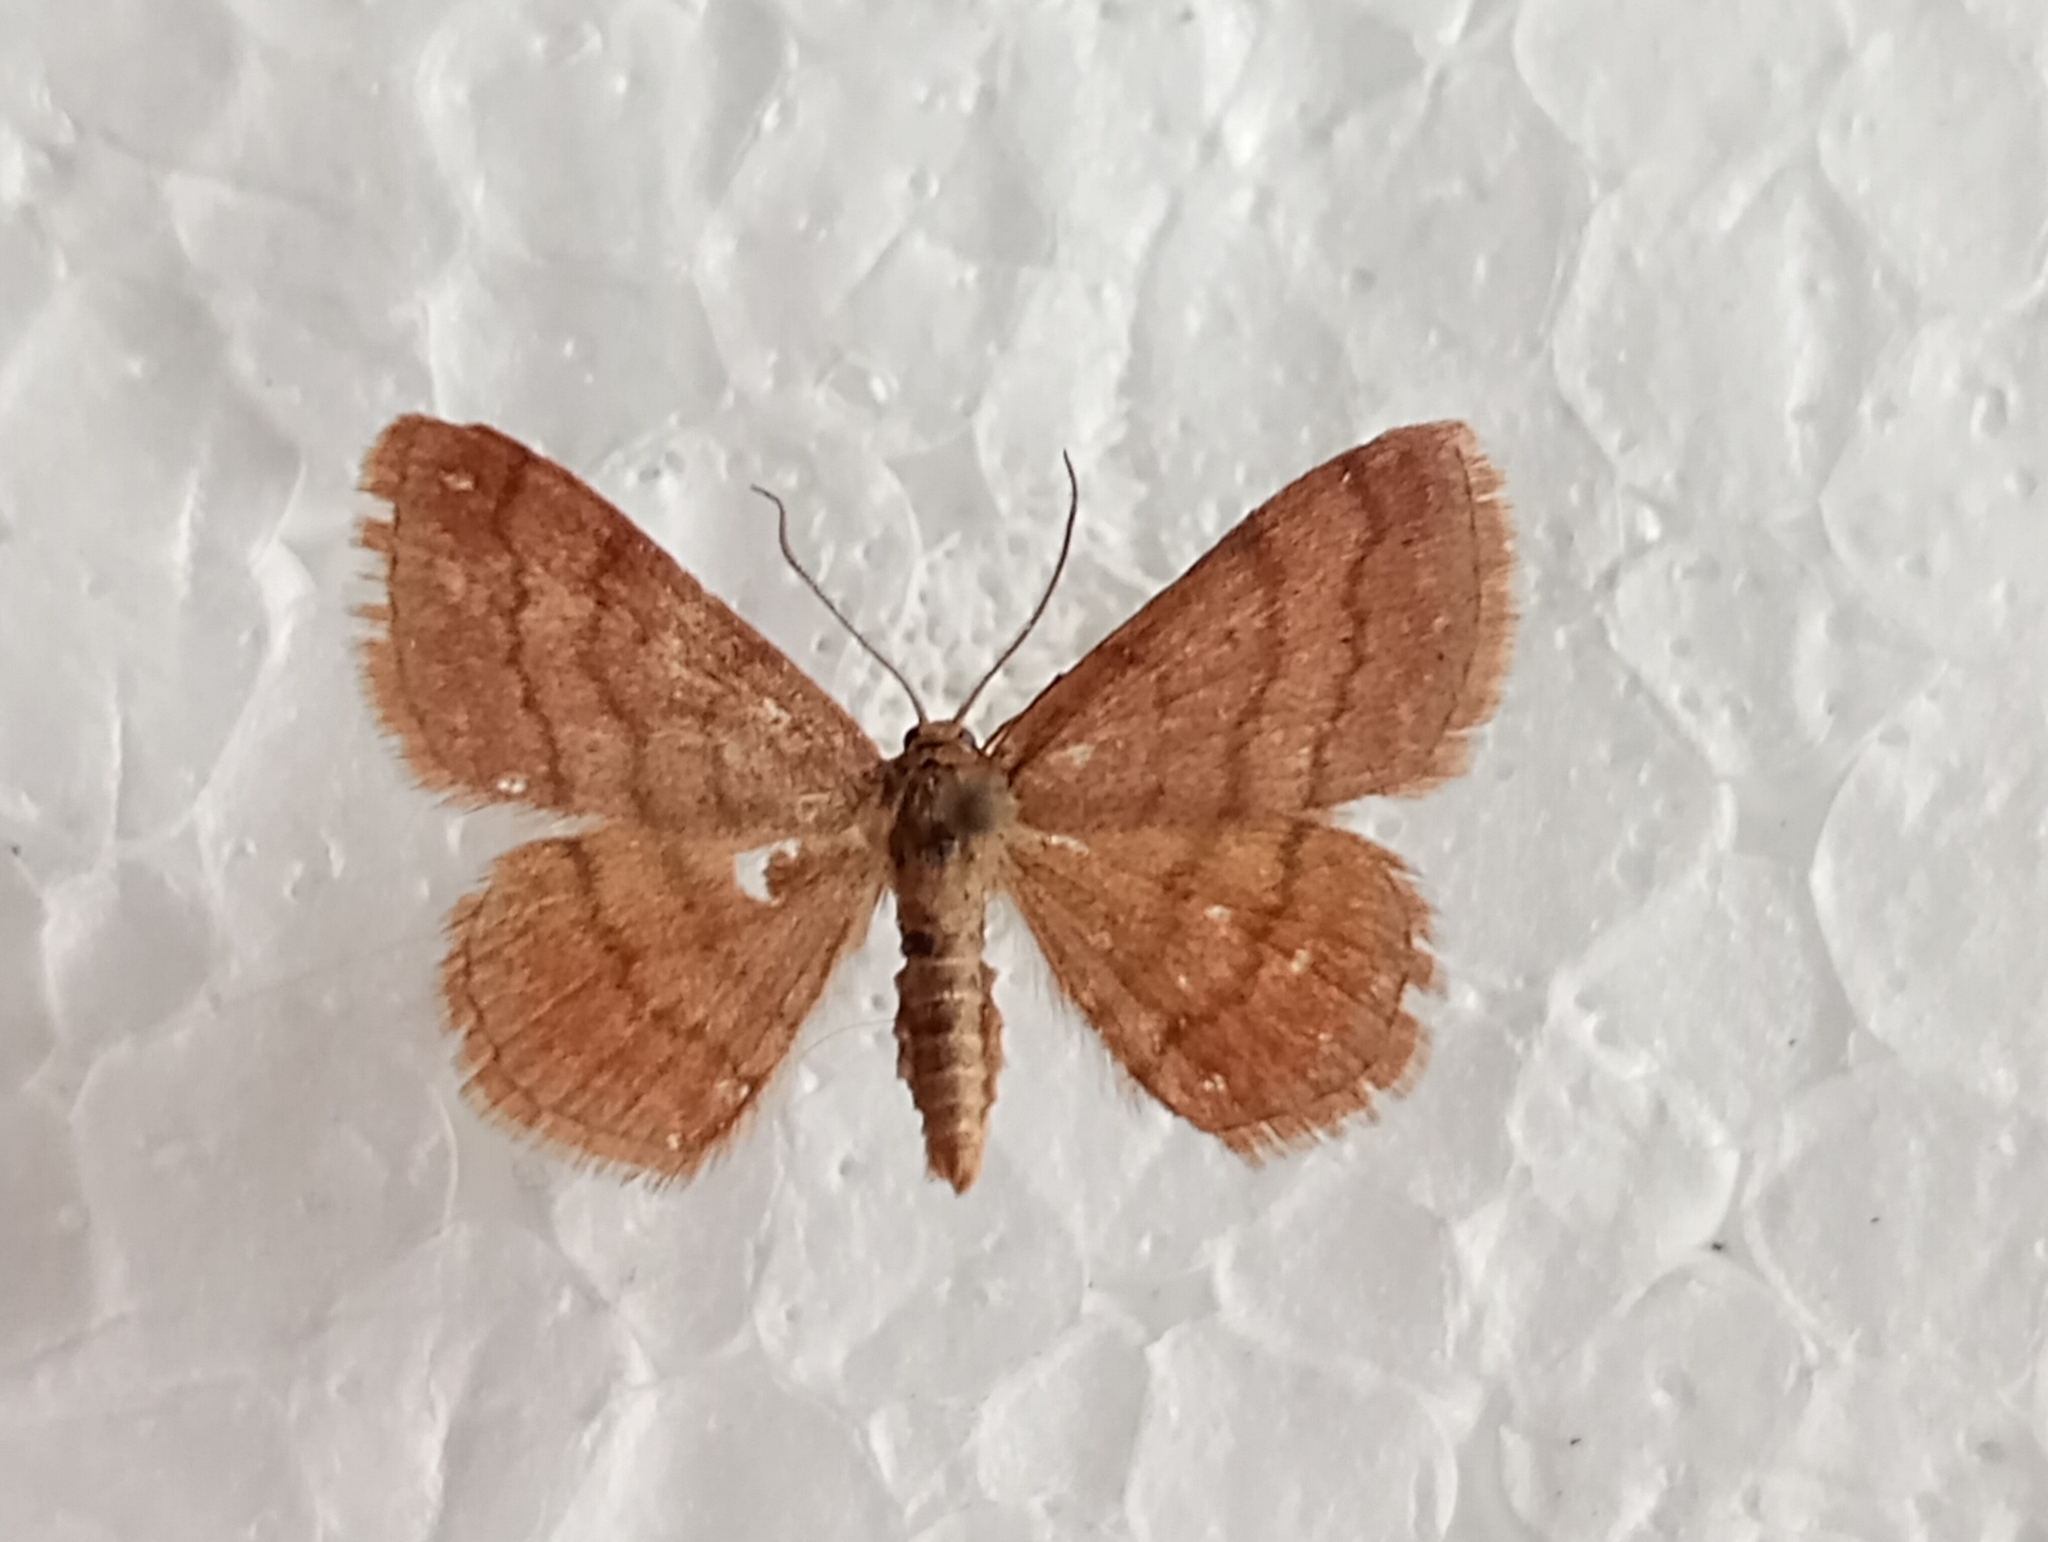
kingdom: Animalia
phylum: Arthropoda
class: Insecta
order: Lepidoptera
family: Geometridae
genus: Scopula
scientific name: Scopula rubiginata
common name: Tawny wave
